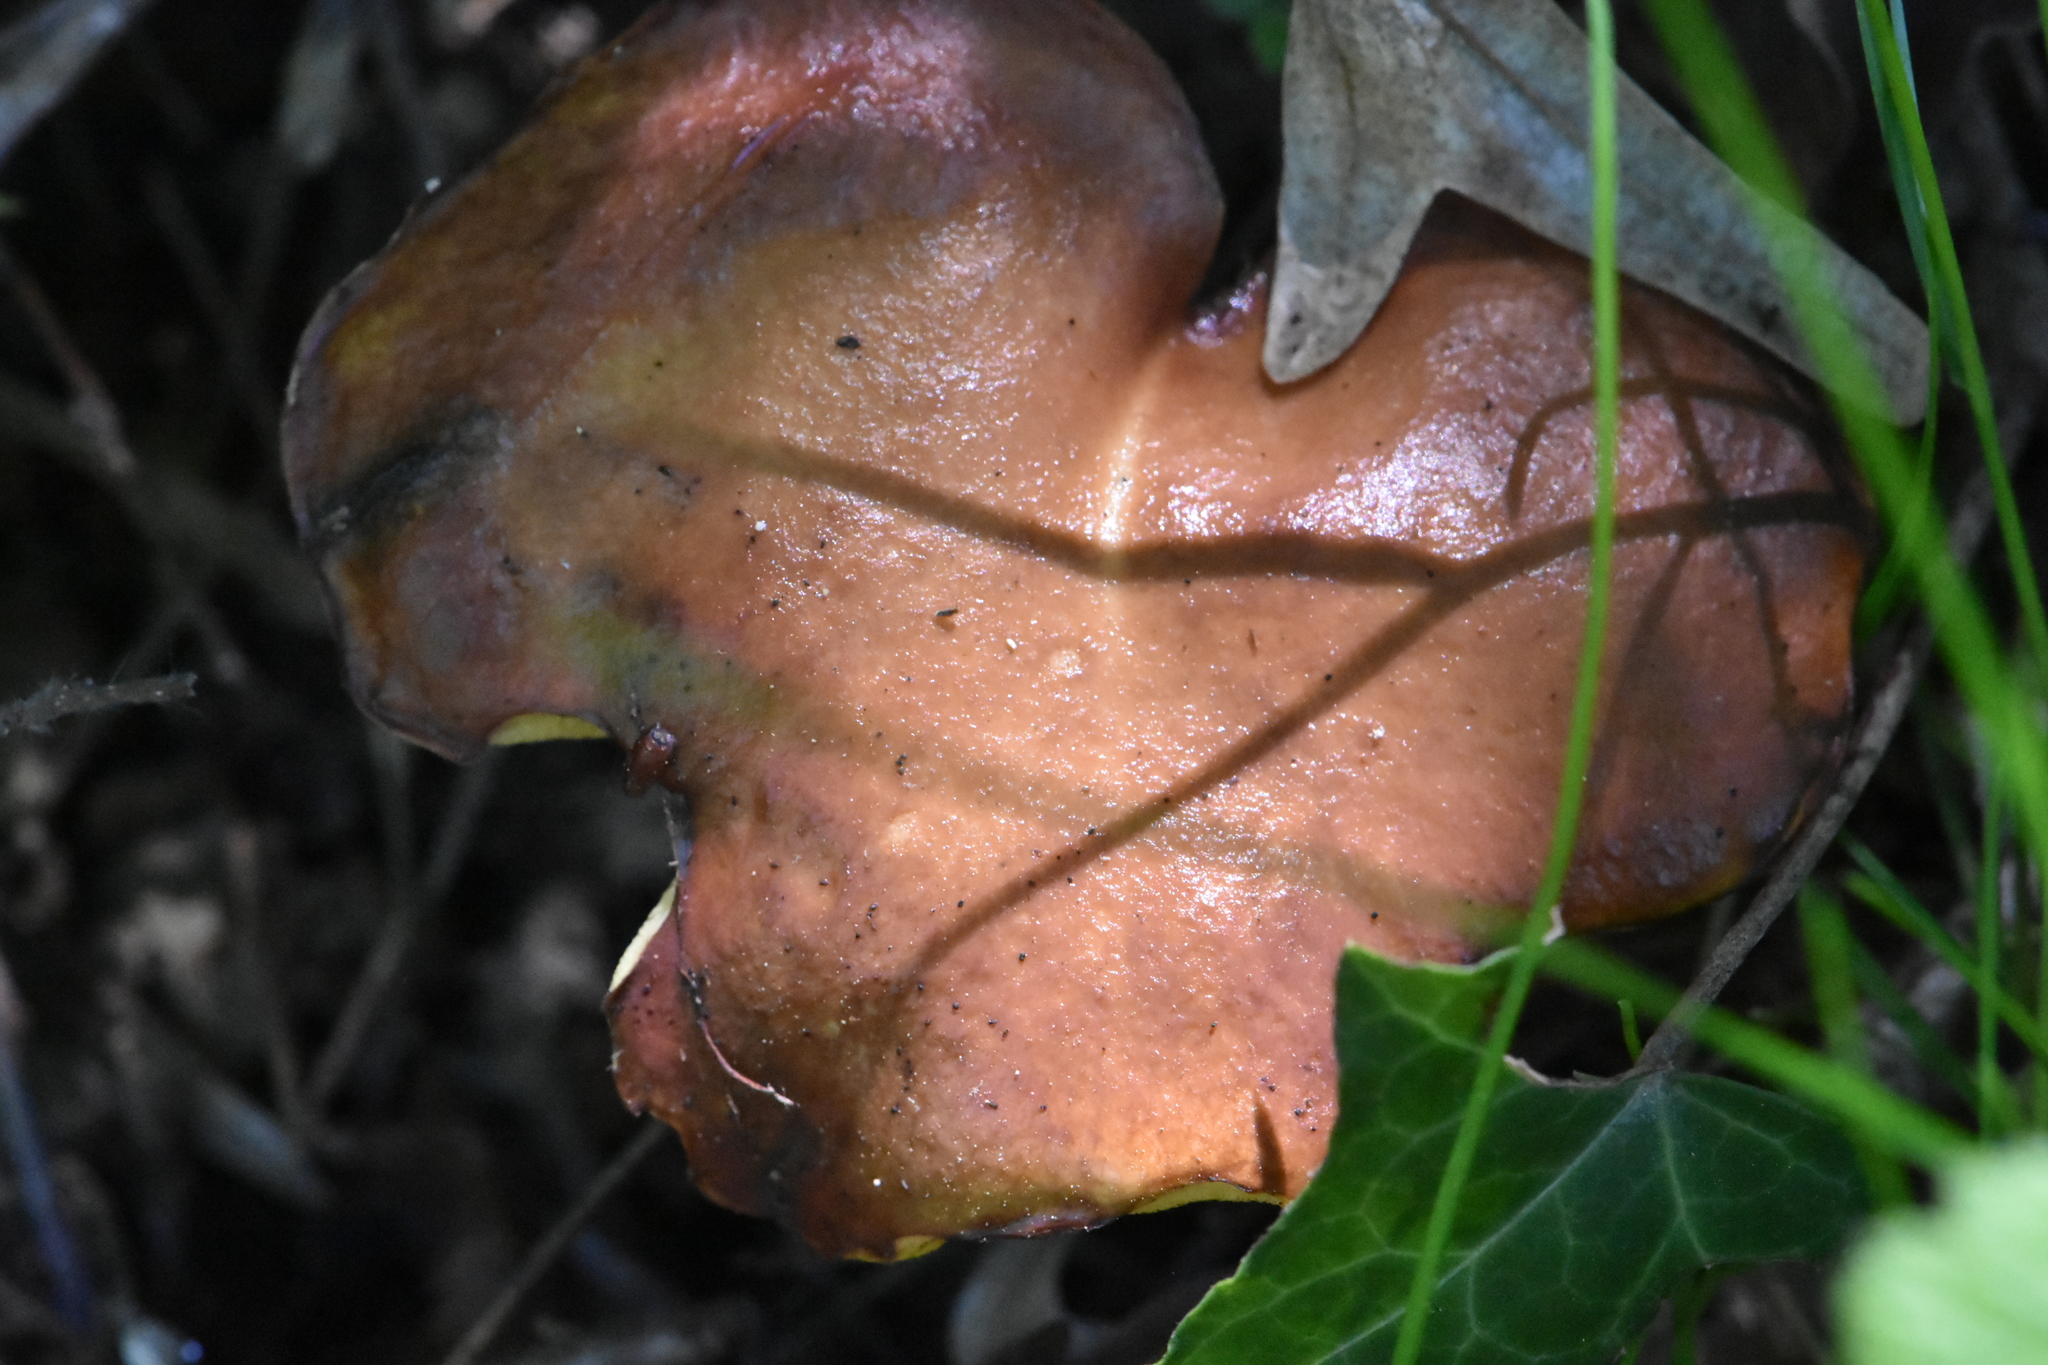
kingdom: Fungi
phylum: Basidiomycota
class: Agaricomycetes
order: Boletales
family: Suillaceae
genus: Suillus
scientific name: Suillus granulatus
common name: Weeping bolete
